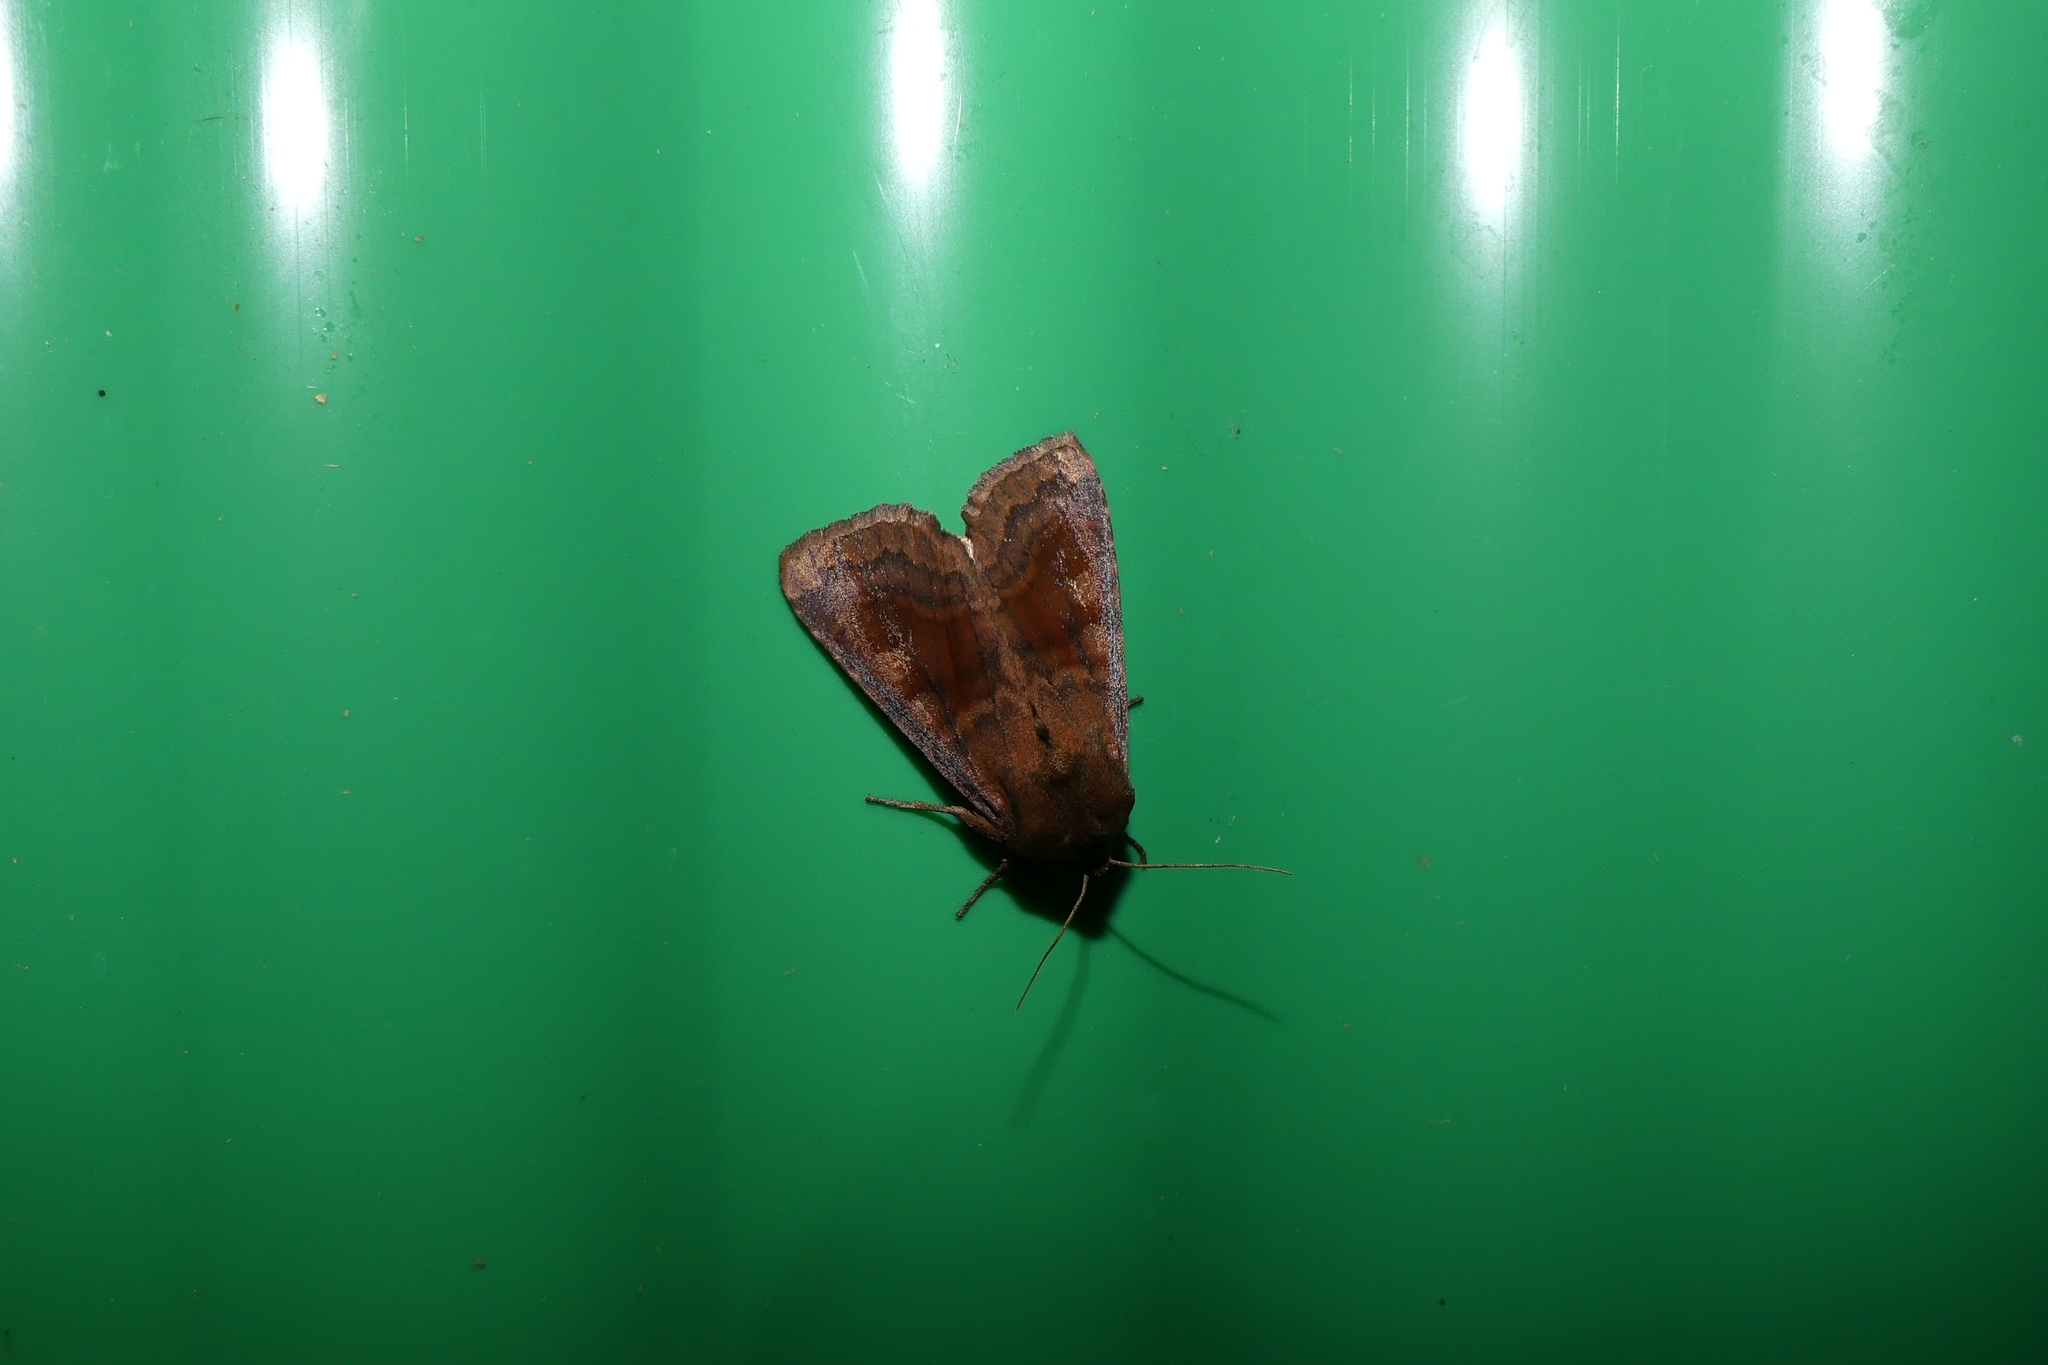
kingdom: Animalia
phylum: Arthropoda
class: Insecta
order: Lepidoptera
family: Noctuidae
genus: Nephelodes
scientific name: Nephelodes minians
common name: Bronzed cutworm
